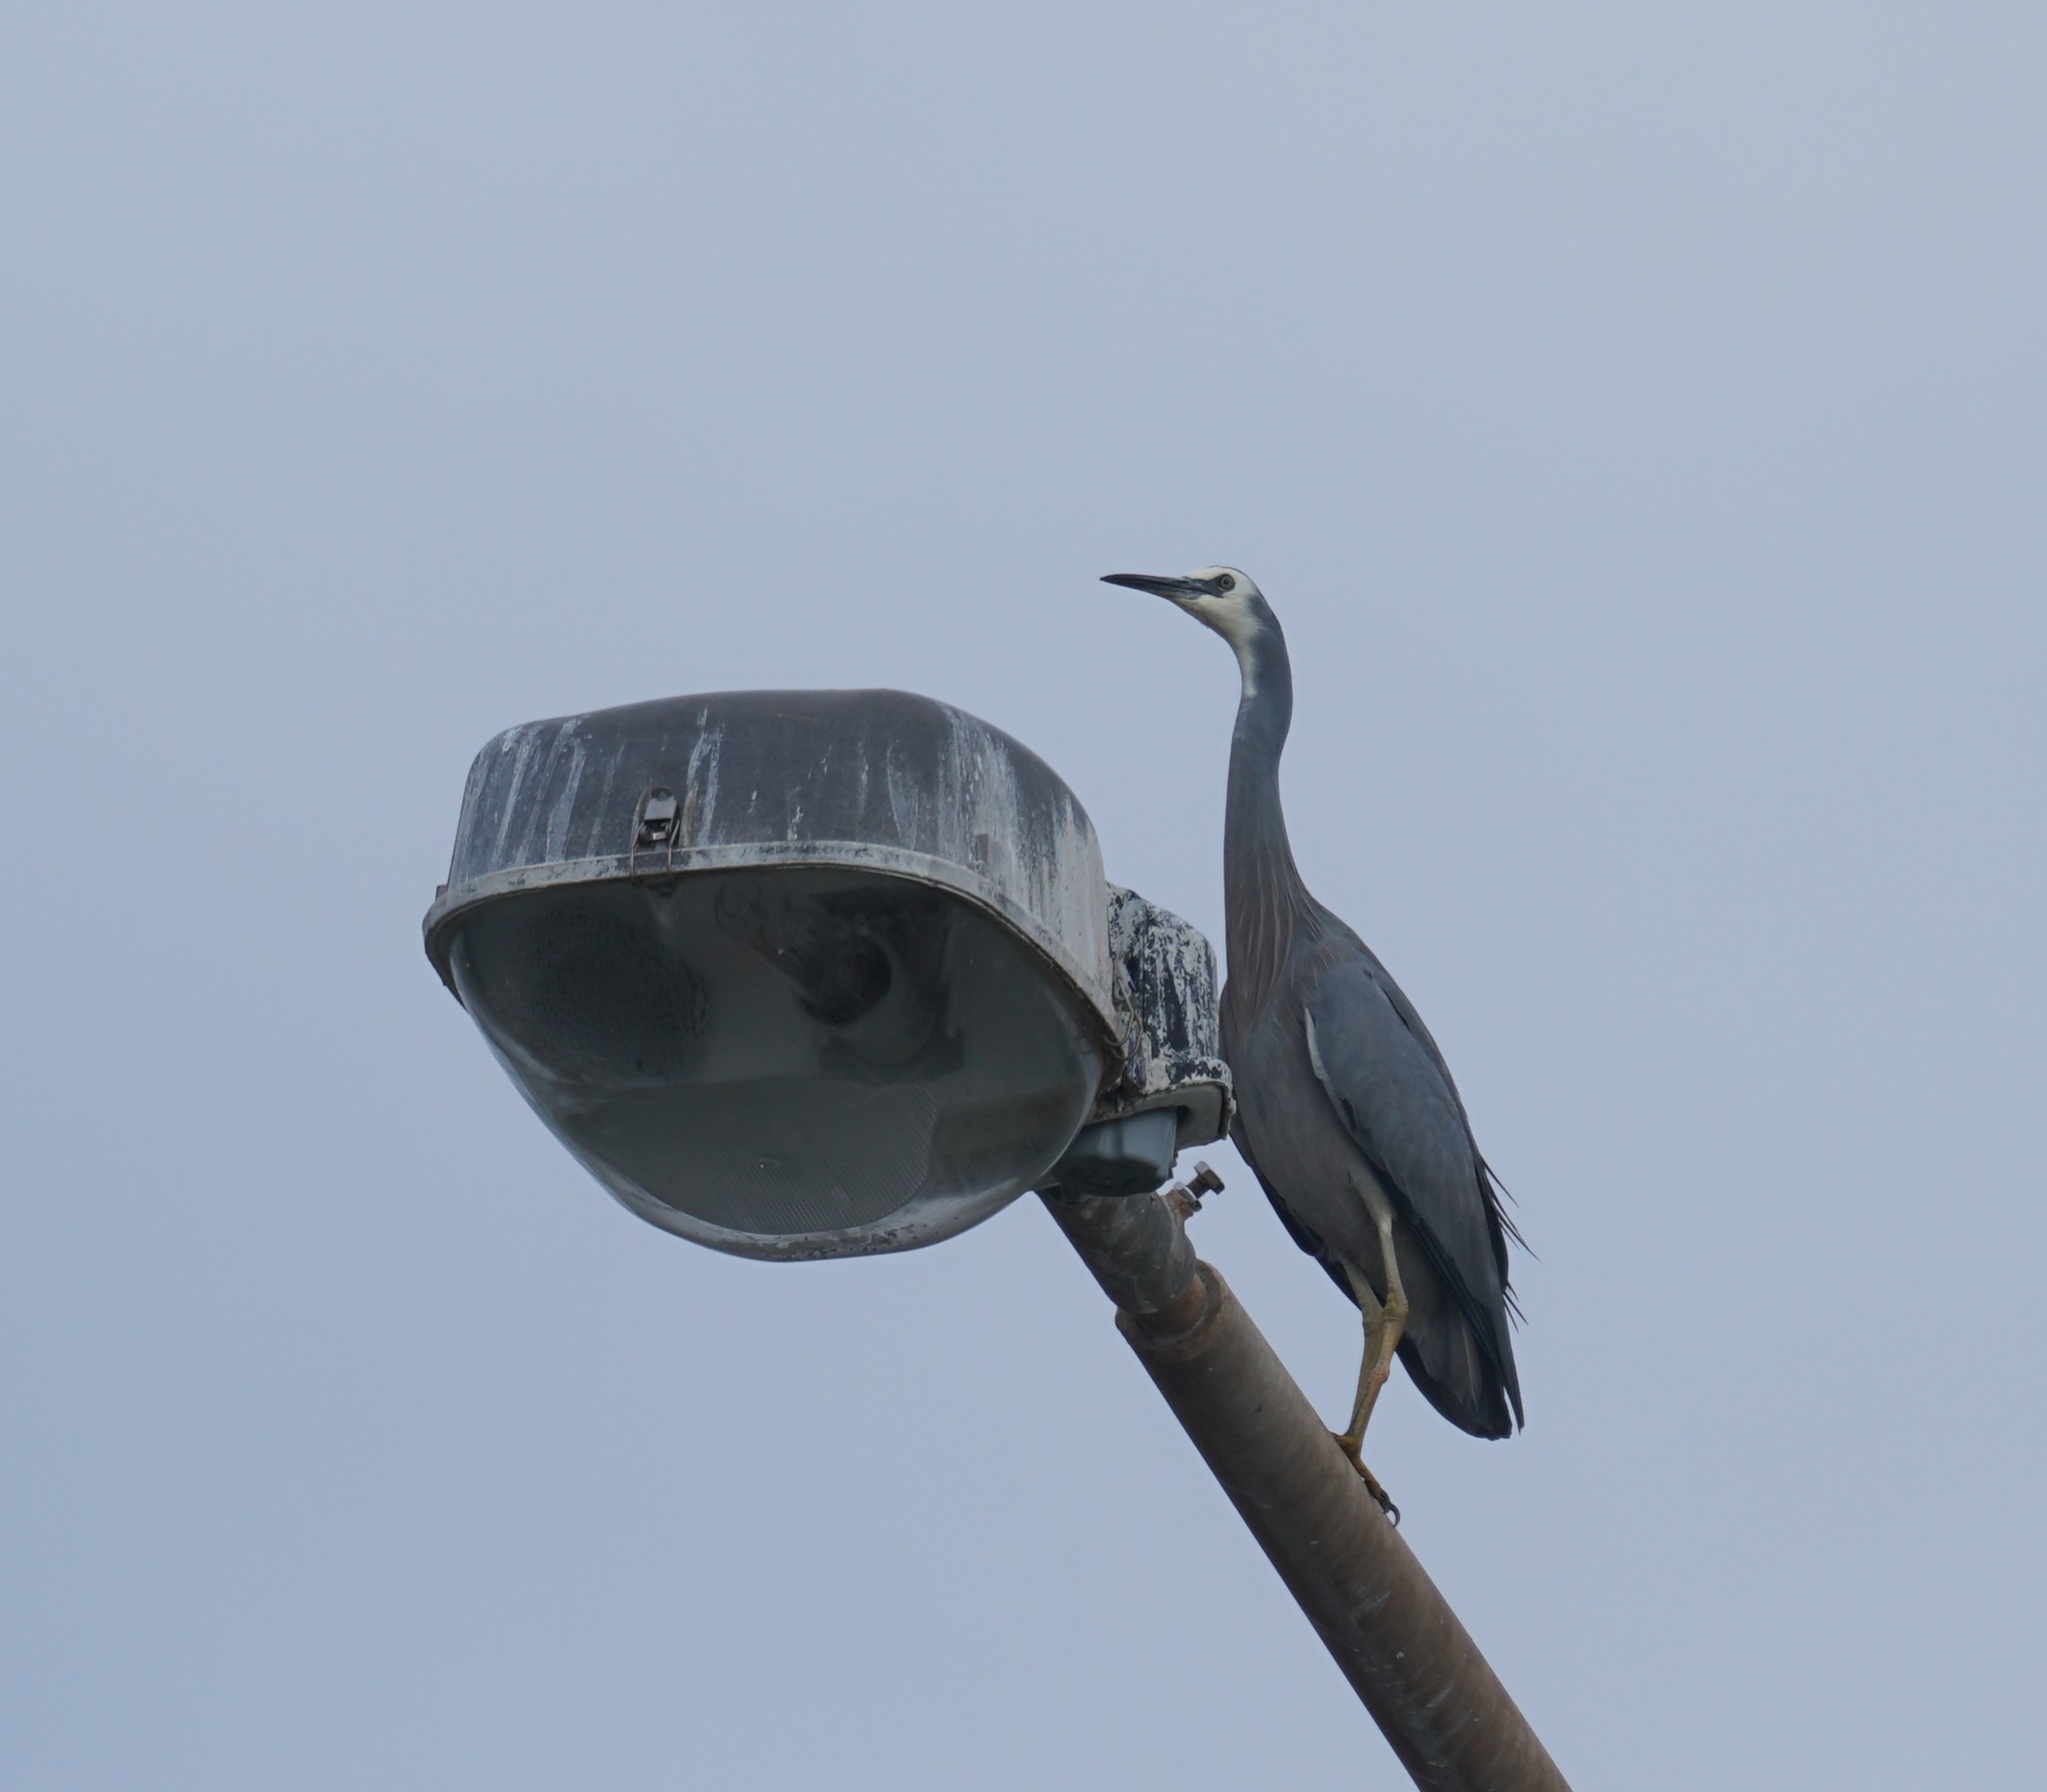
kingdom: Animalia
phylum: Chordata
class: Aves
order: Pelecaniformes
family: Ardeidae
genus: Egretta
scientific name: Egretta novaehollandiae
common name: White-faced heron
